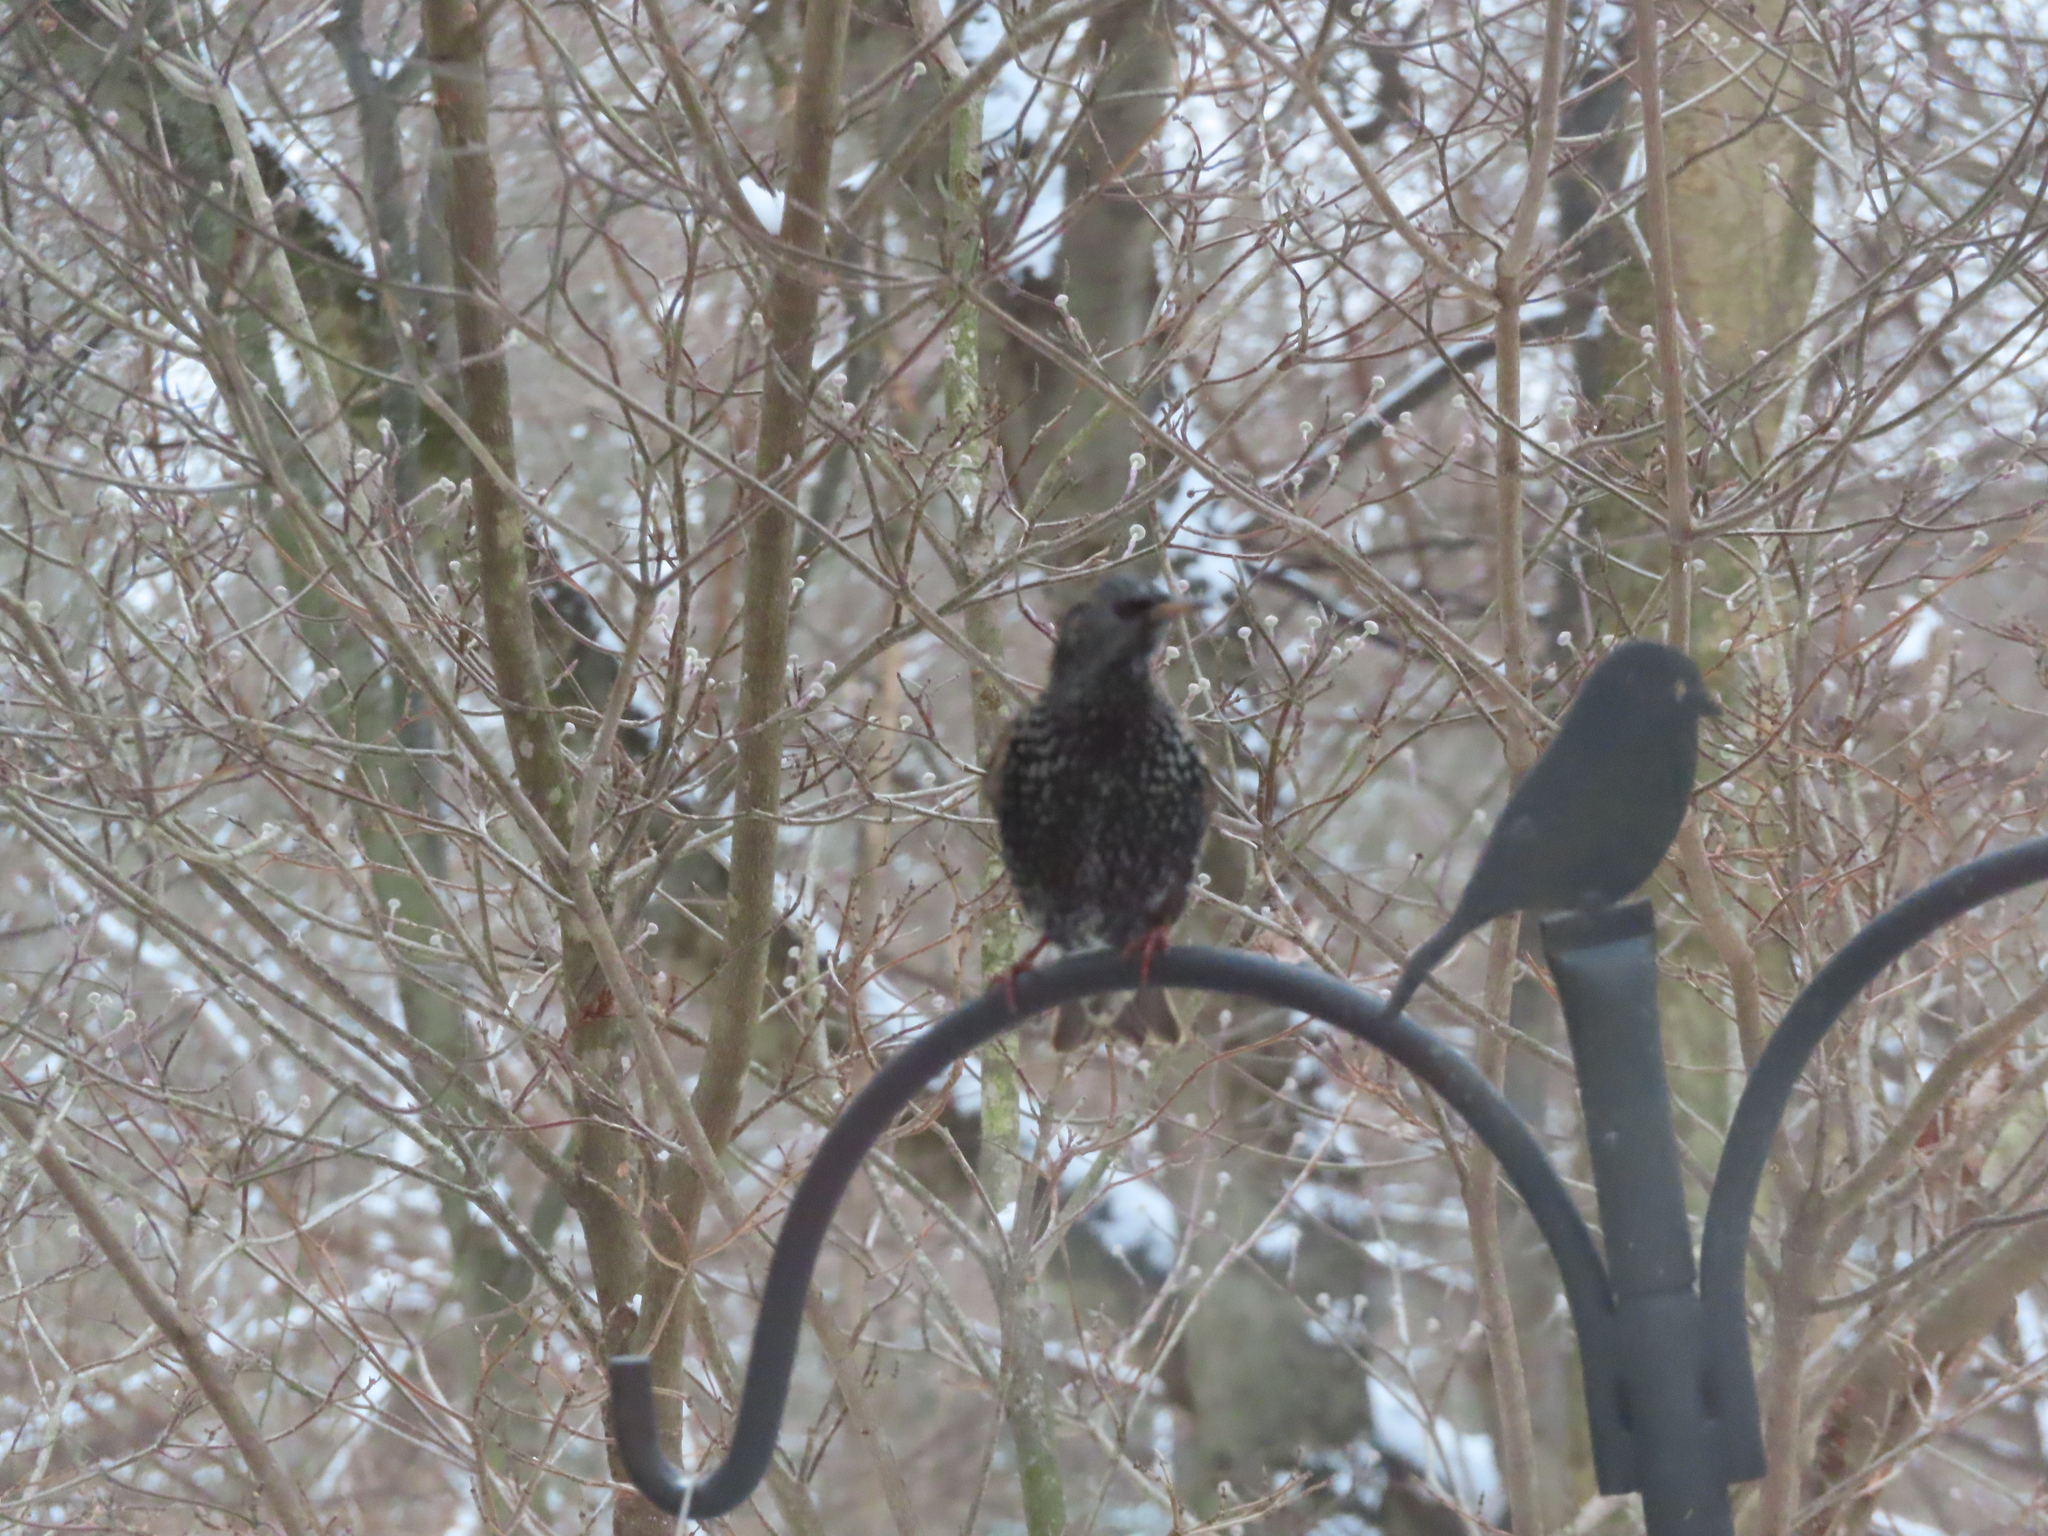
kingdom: Animalia
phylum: Chordata
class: Aves
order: Passeriformes
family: Sturnidae
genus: Sturnus
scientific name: Sturnus vulgaris
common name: Common starling
